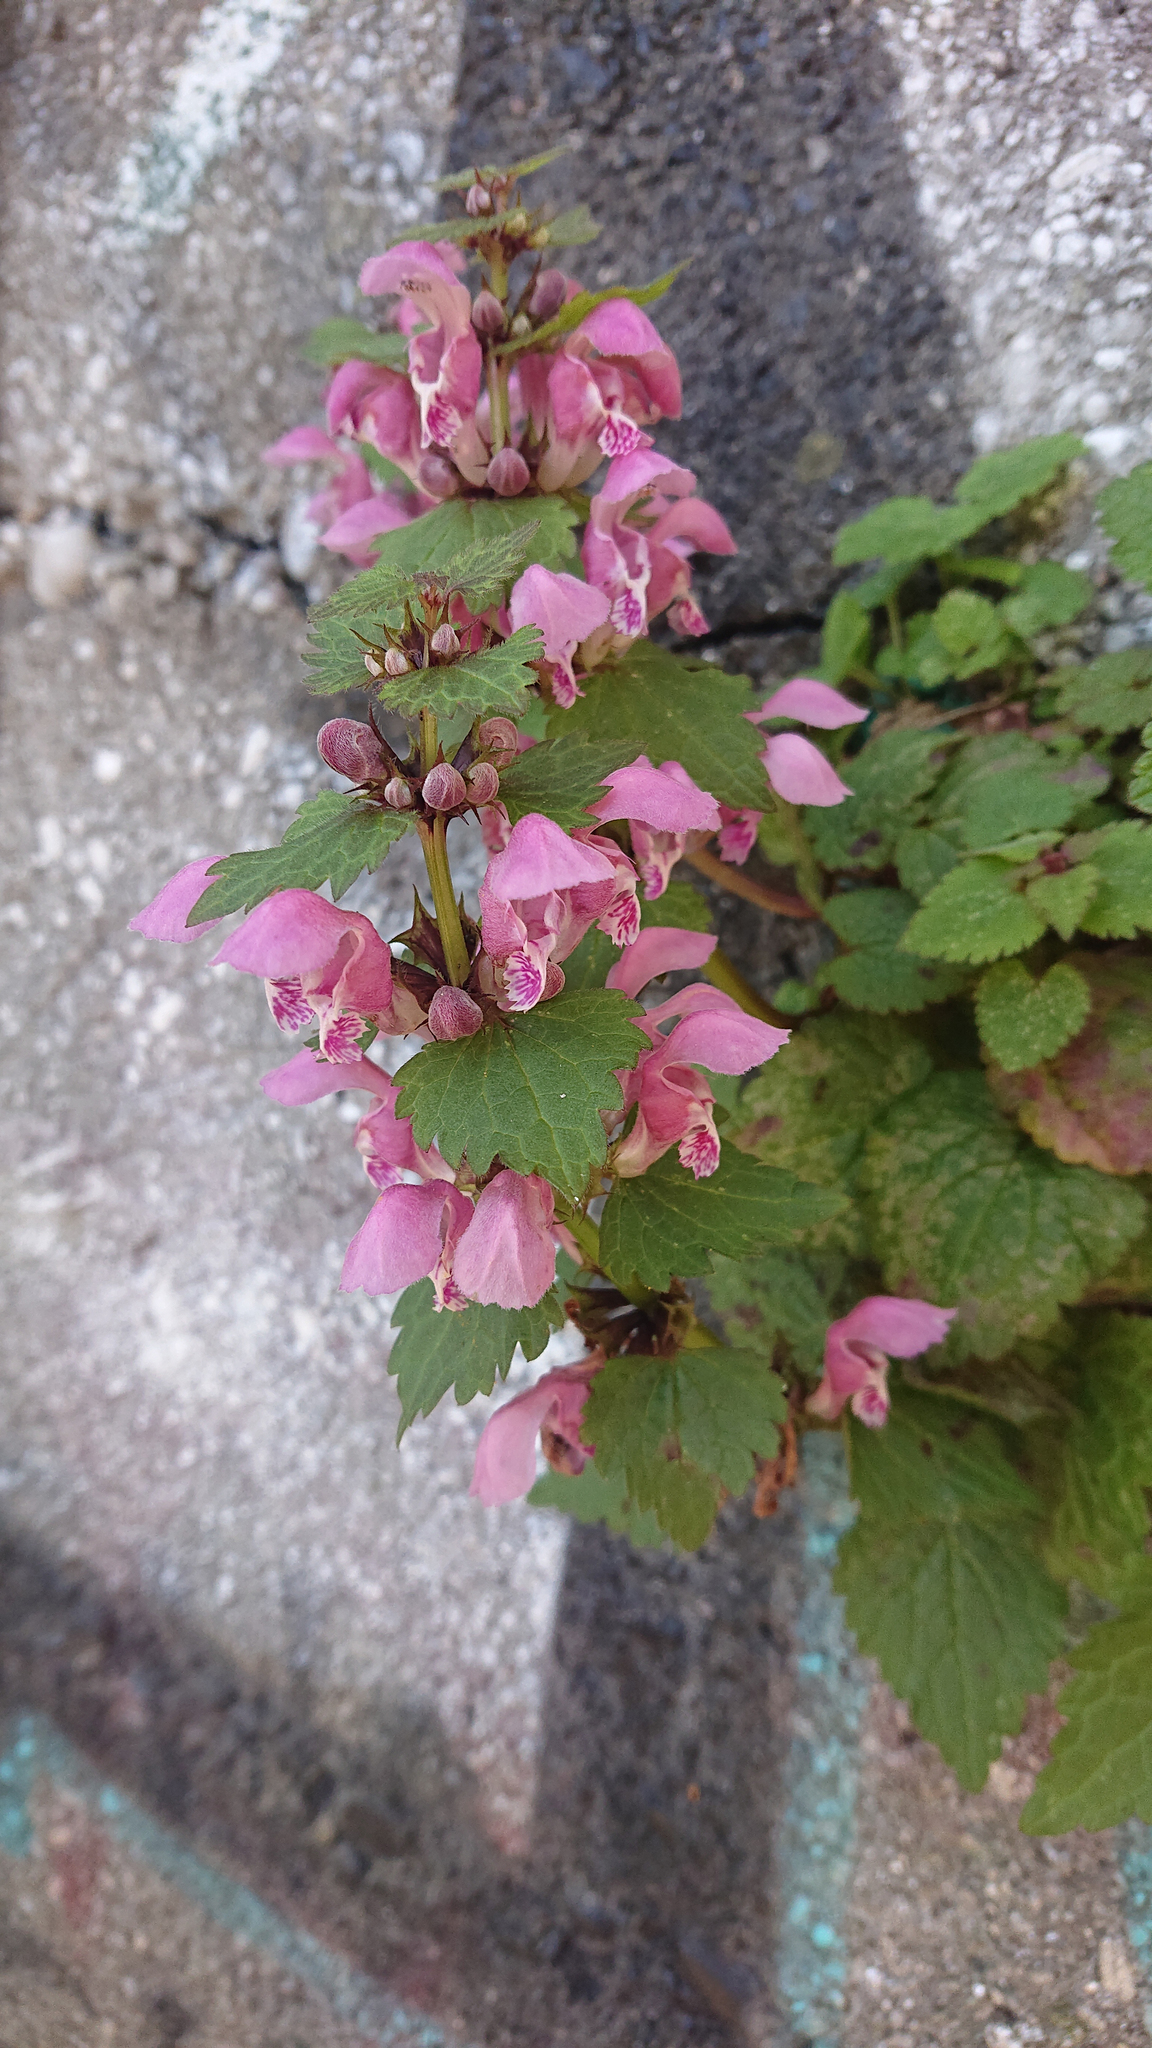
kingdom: Plantae
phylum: Tracheophyta
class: Magnoliopsida
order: Lamiales
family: Lamiaceae
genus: Lamium
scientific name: Lamium maculatum
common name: Spotted dead-nettle
